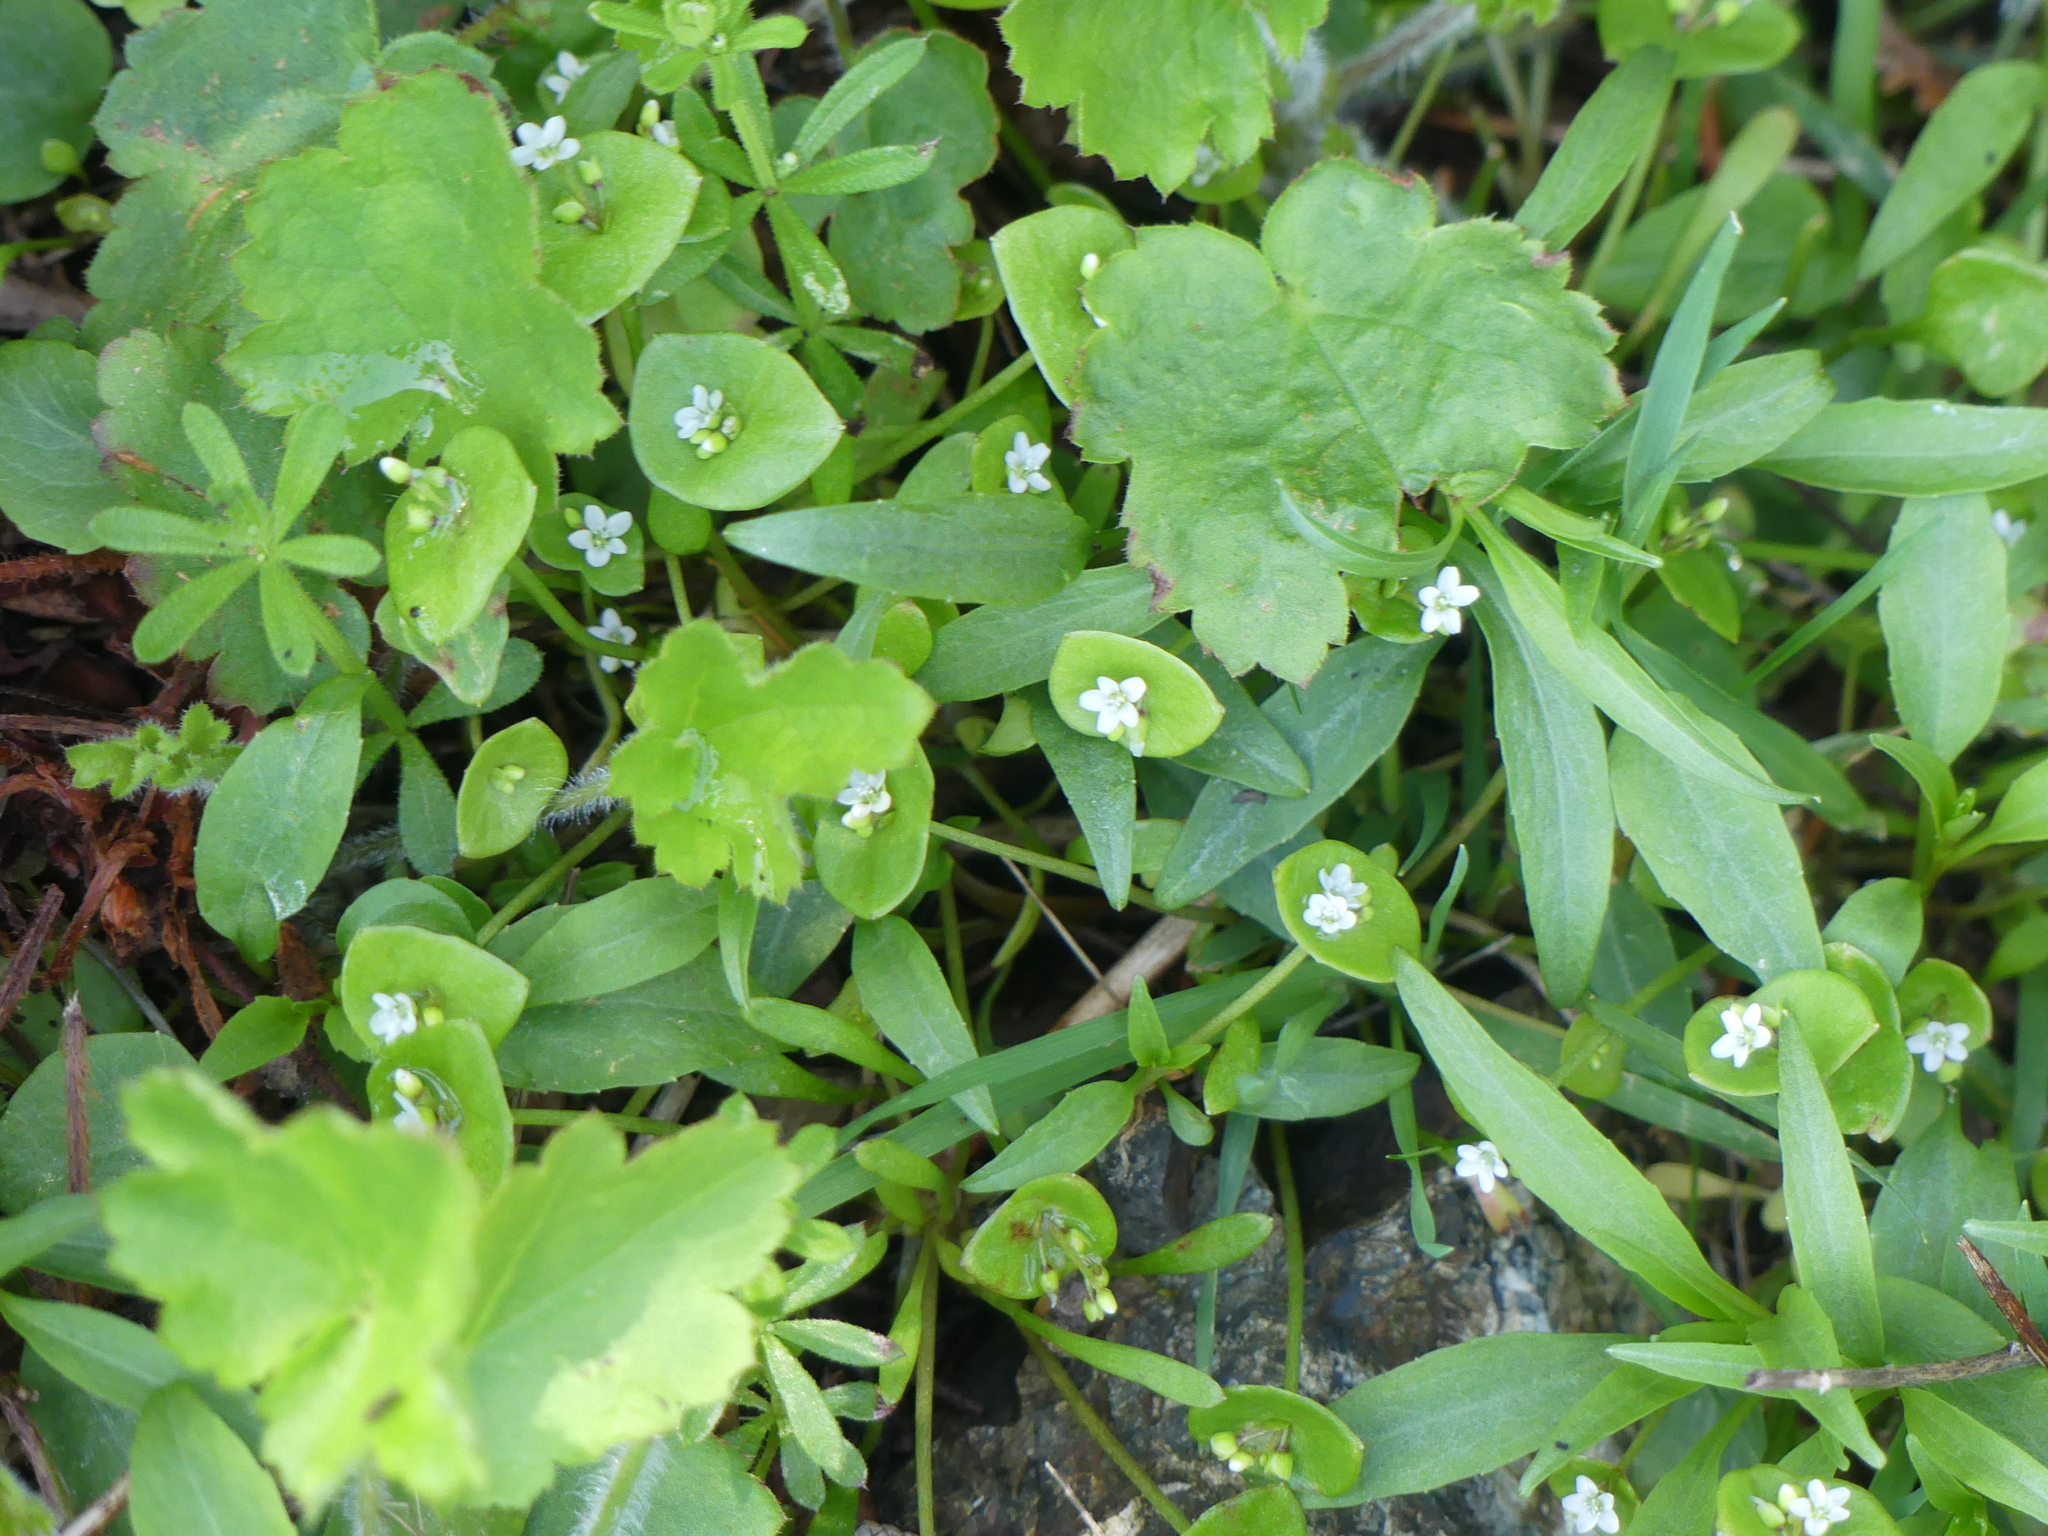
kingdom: Plantae
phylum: Tracheophyta
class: Magnoliopsida
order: Caryophyllales
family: Montiaceae
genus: Claytonia
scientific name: Claytonia perfoliata
